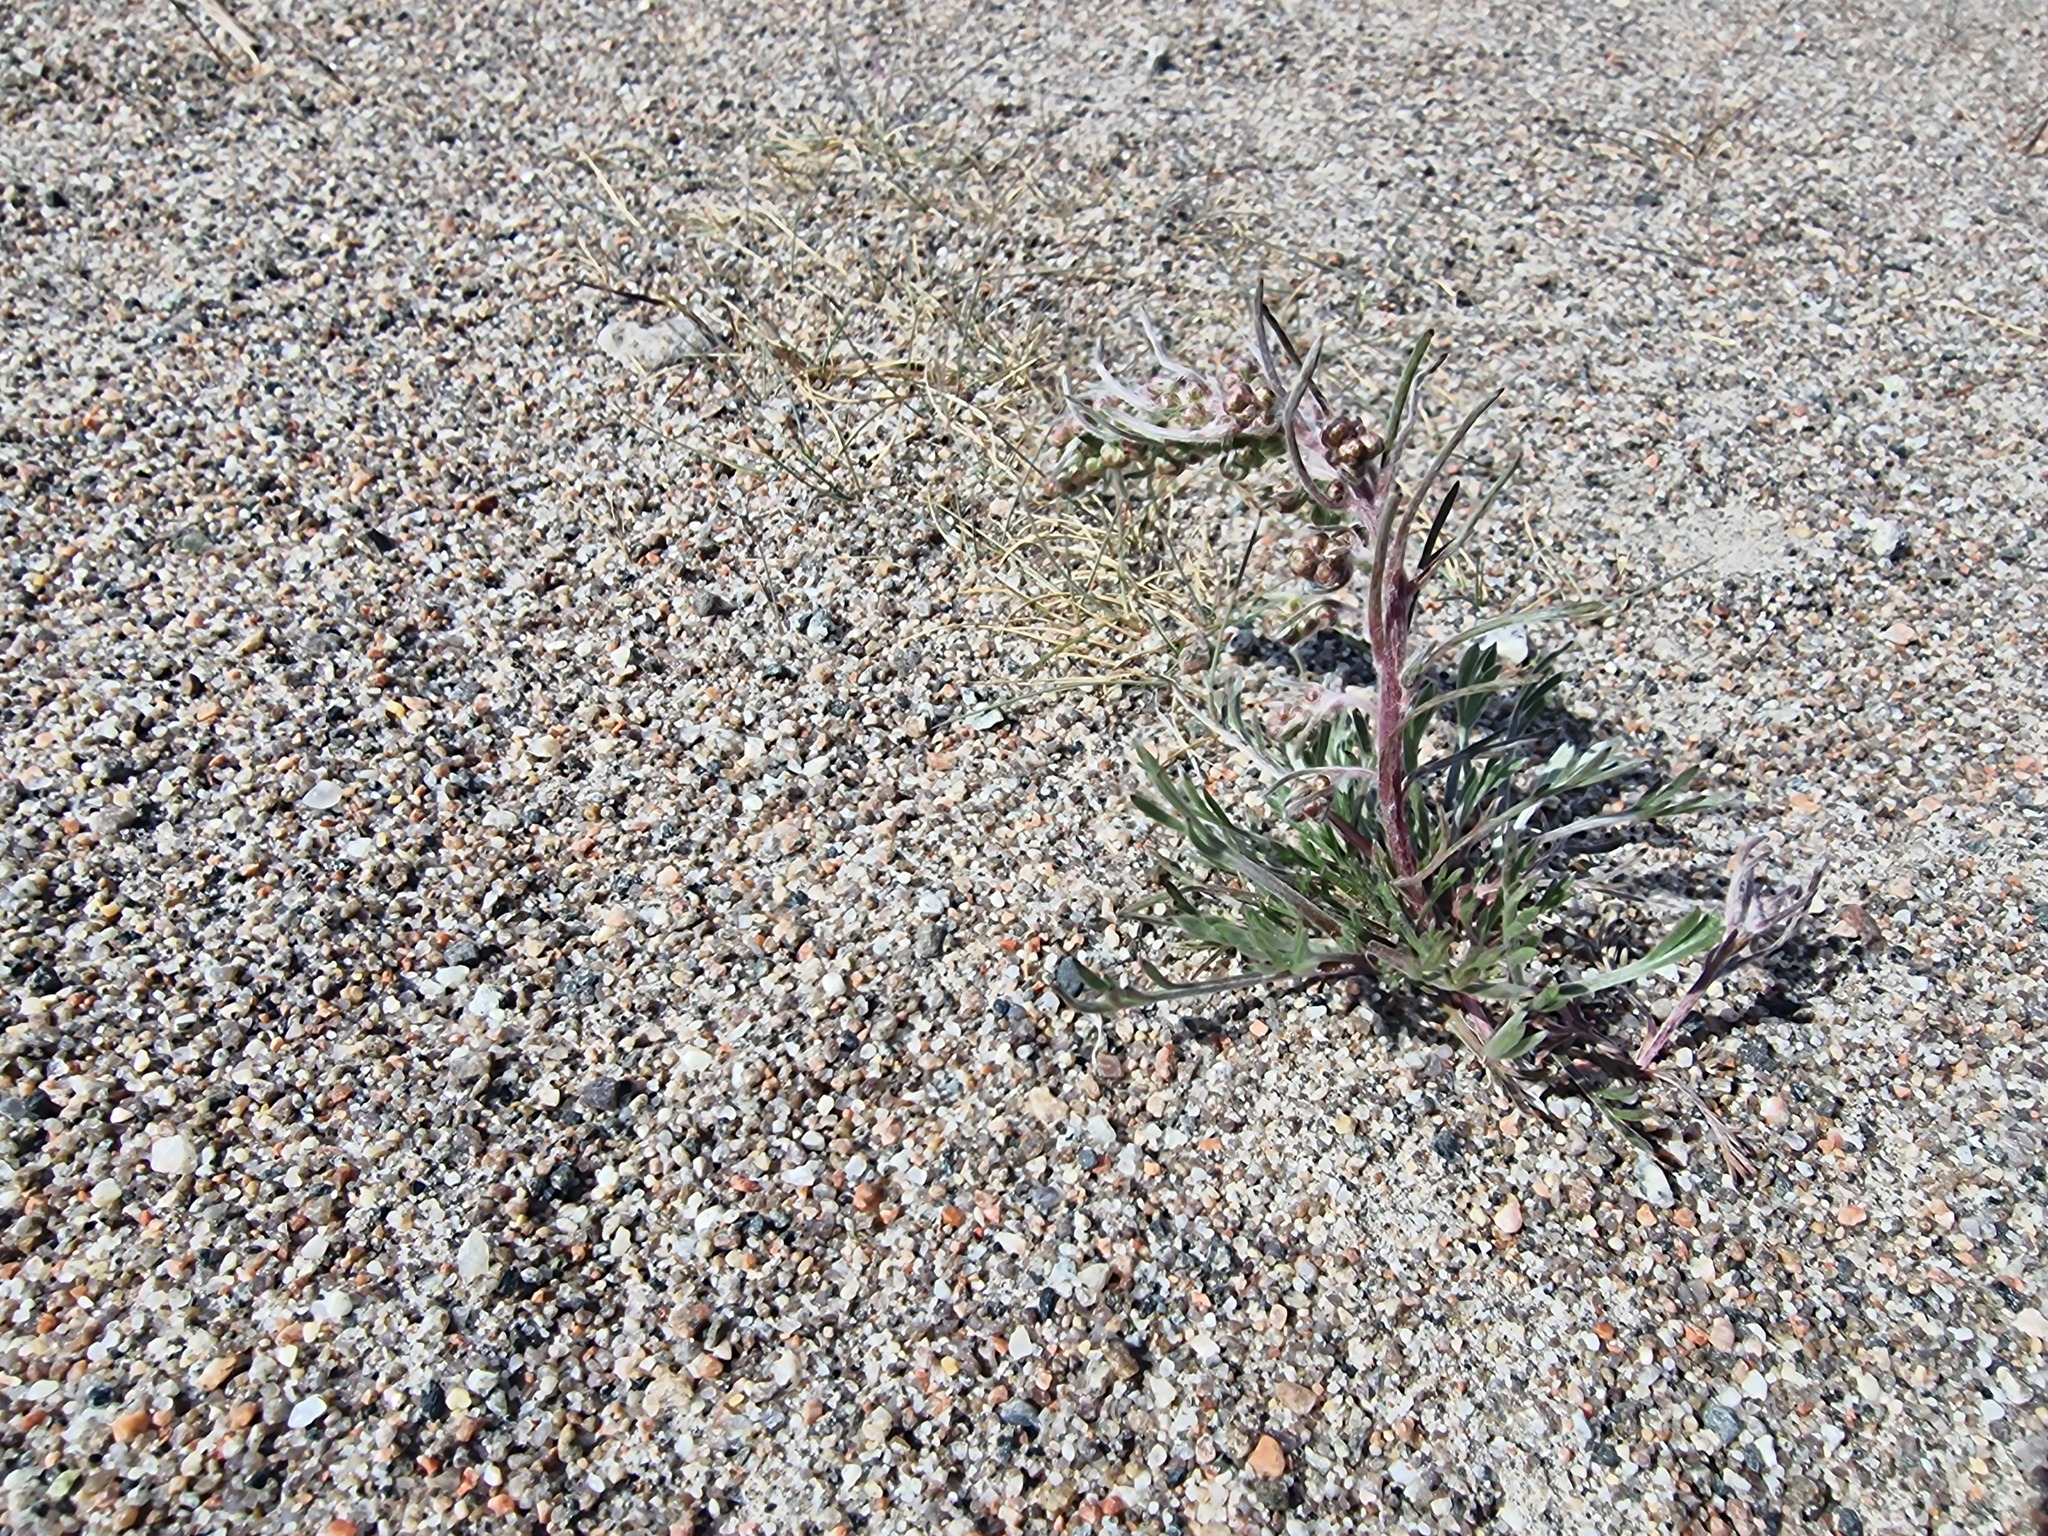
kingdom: Plantae
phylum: Tracheophyta
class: Magnoliopsida
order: Asterales
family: Asteraceae
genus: Artemisia
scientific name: Artemisia borealis
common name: Boreal sage
